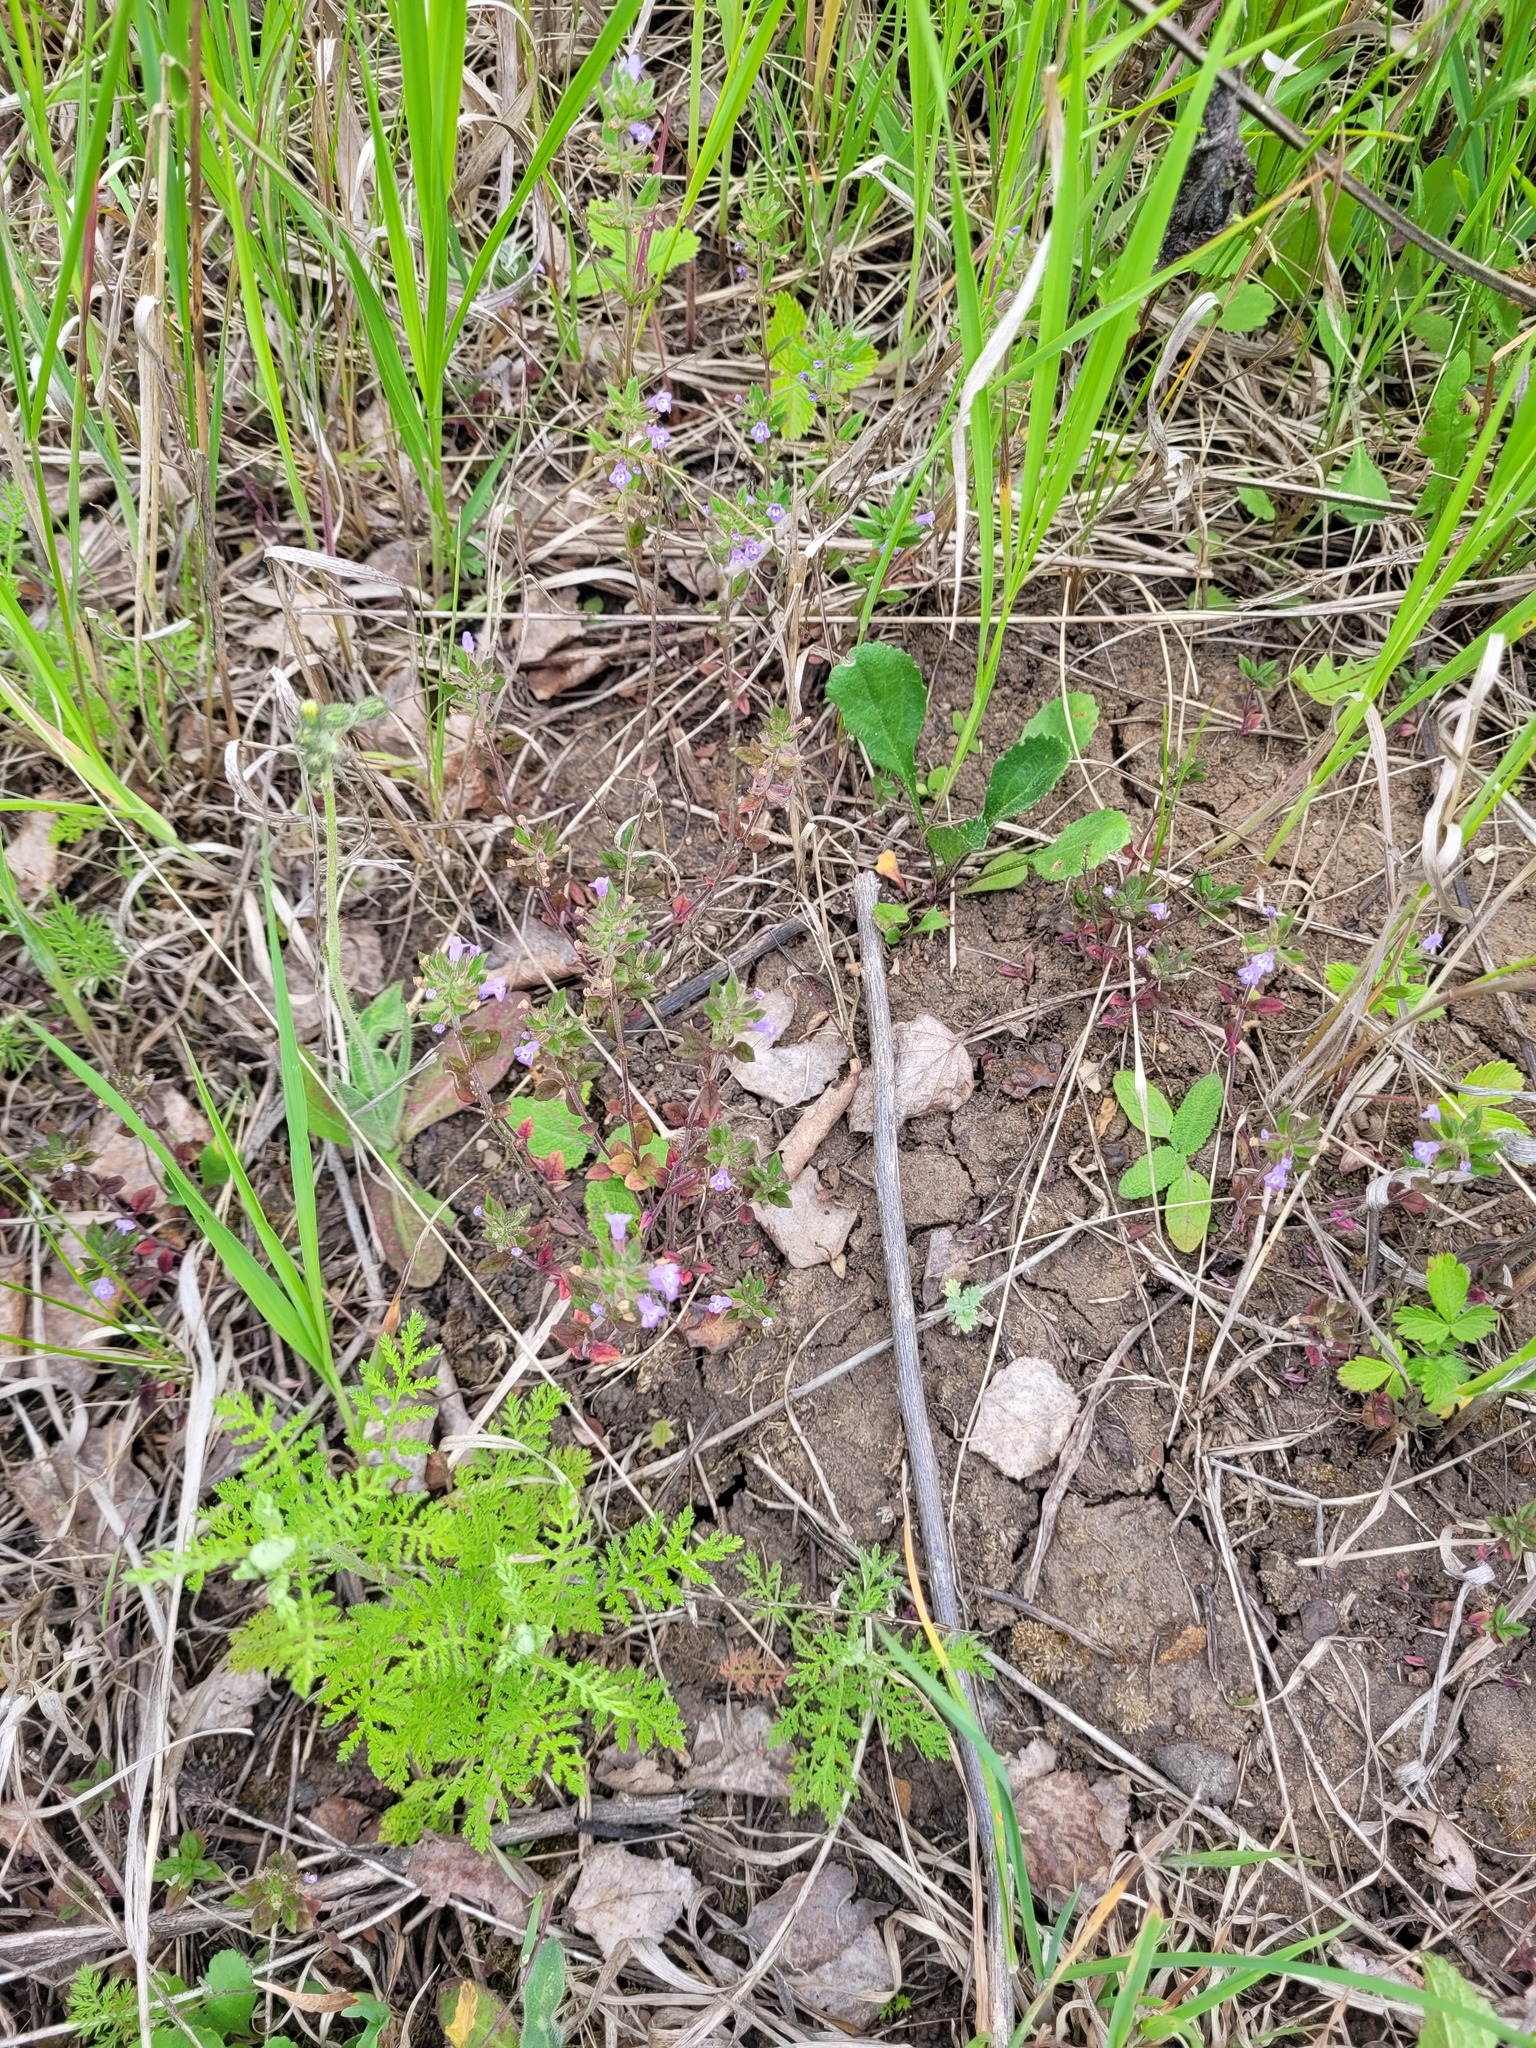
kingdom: Plantae
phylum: Tracheophyta
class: Magnoliopsida
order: Lamiales
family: Lamiaceae
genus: Clinopodium
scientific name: Clinopodium acinos
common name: Basil thyme
